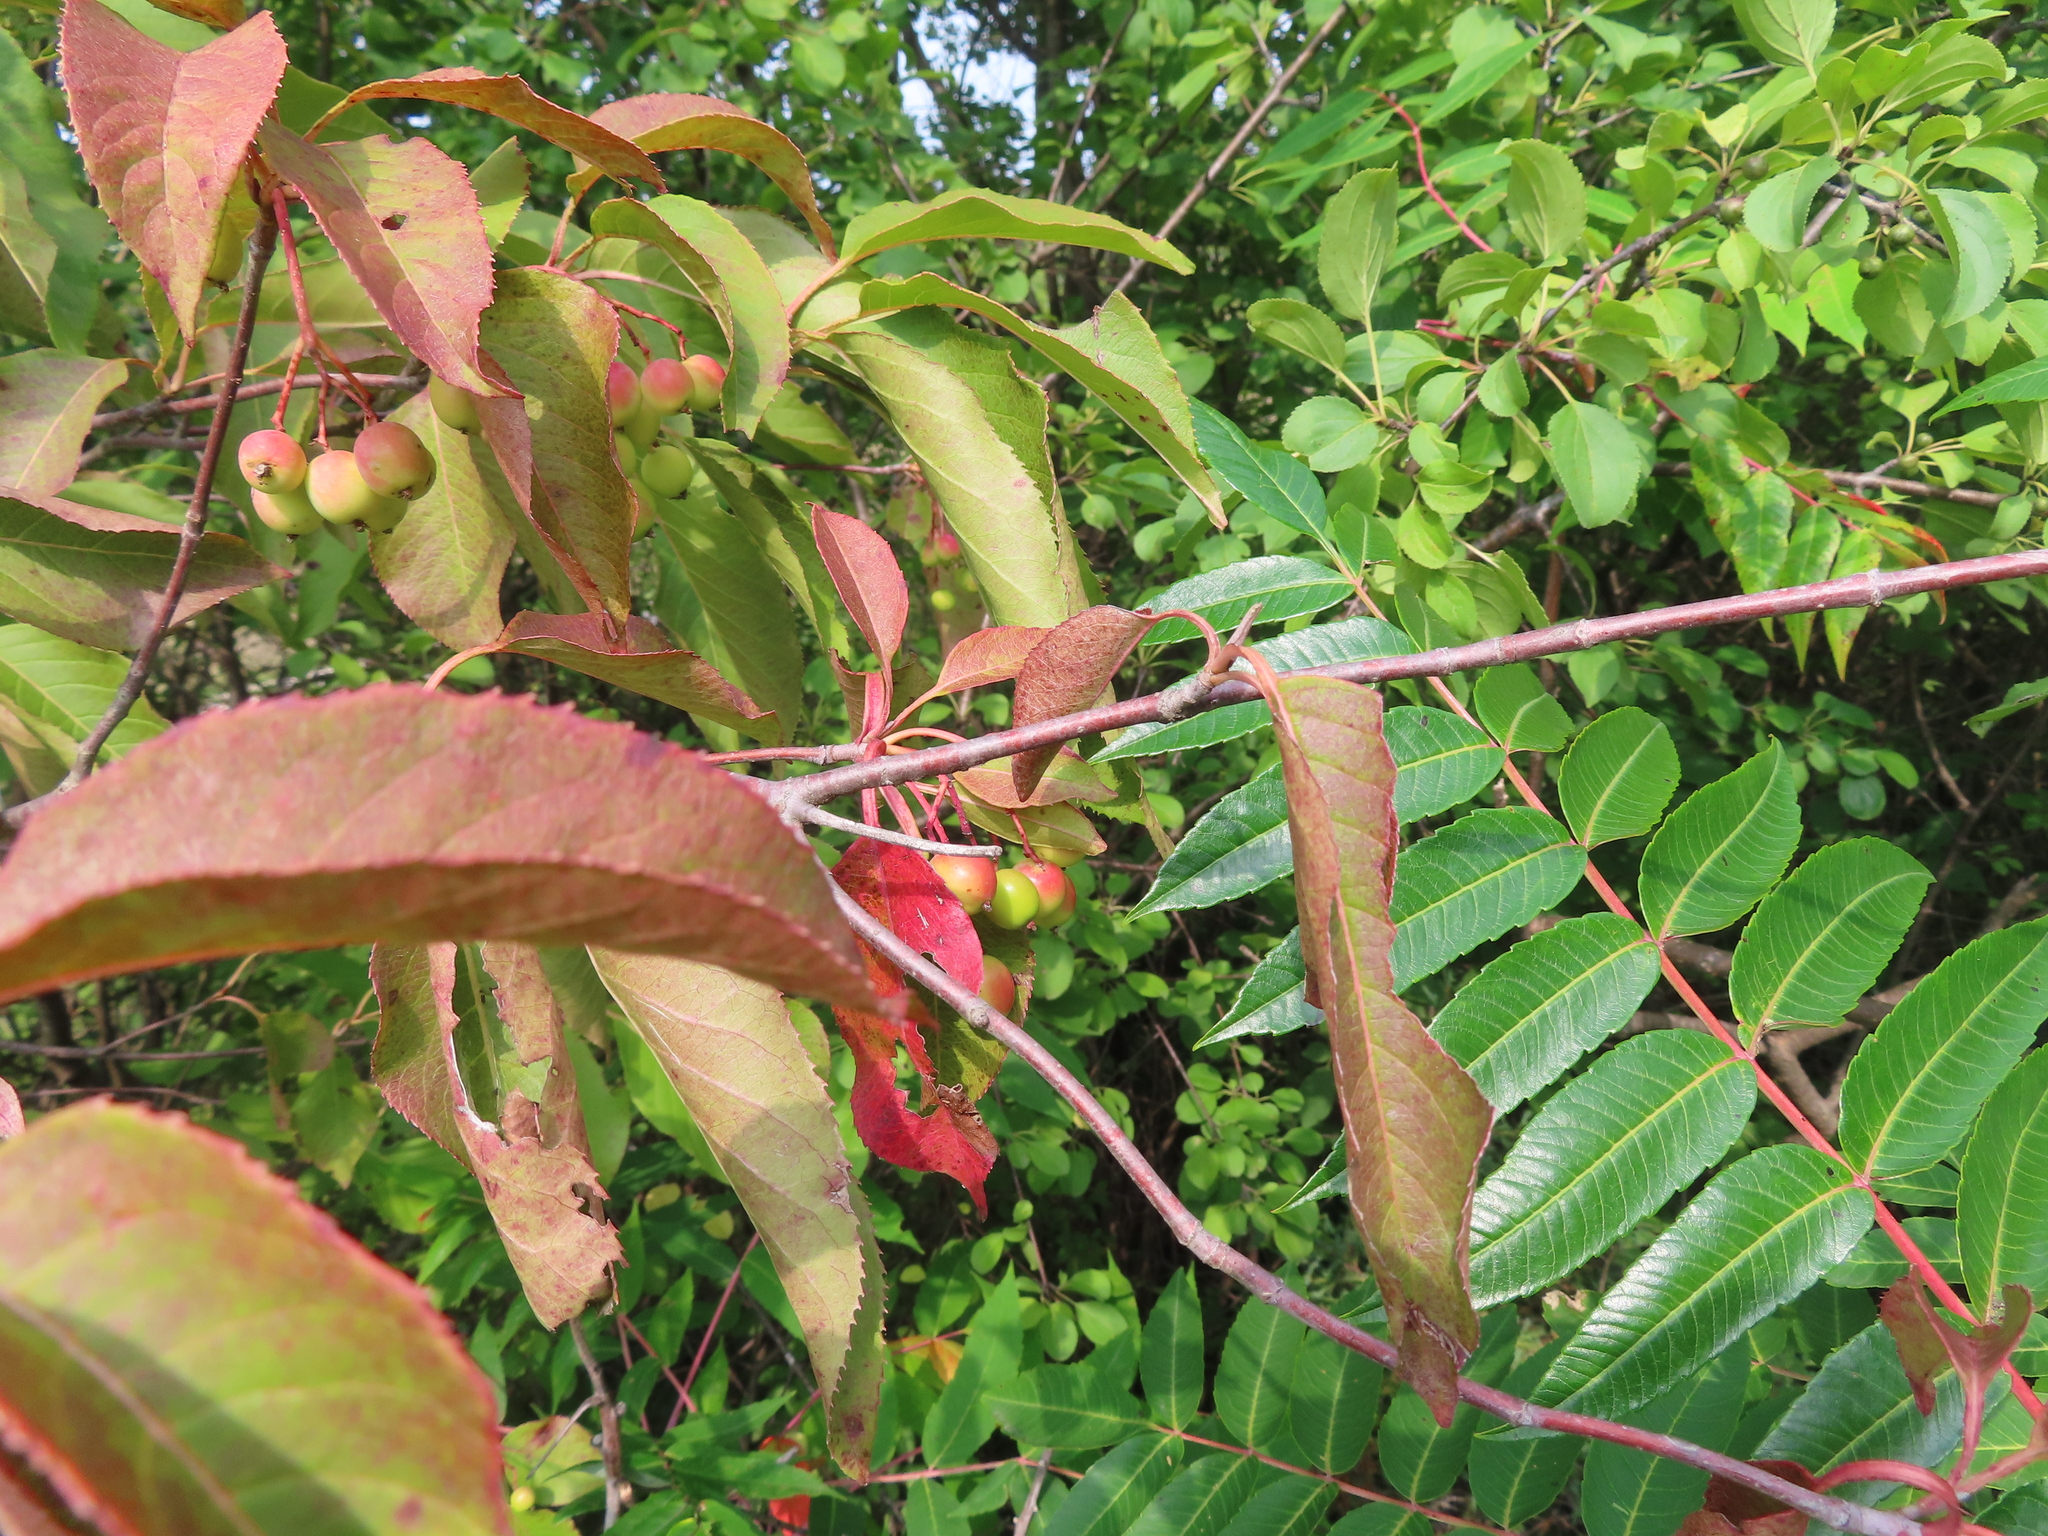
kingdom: Plantae
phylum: Tracheophyta
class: Magnoliopsida
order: Dipsacales
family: Viburnaceae
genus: Viburnum
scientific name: Viburnum lentago
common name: Black haw
